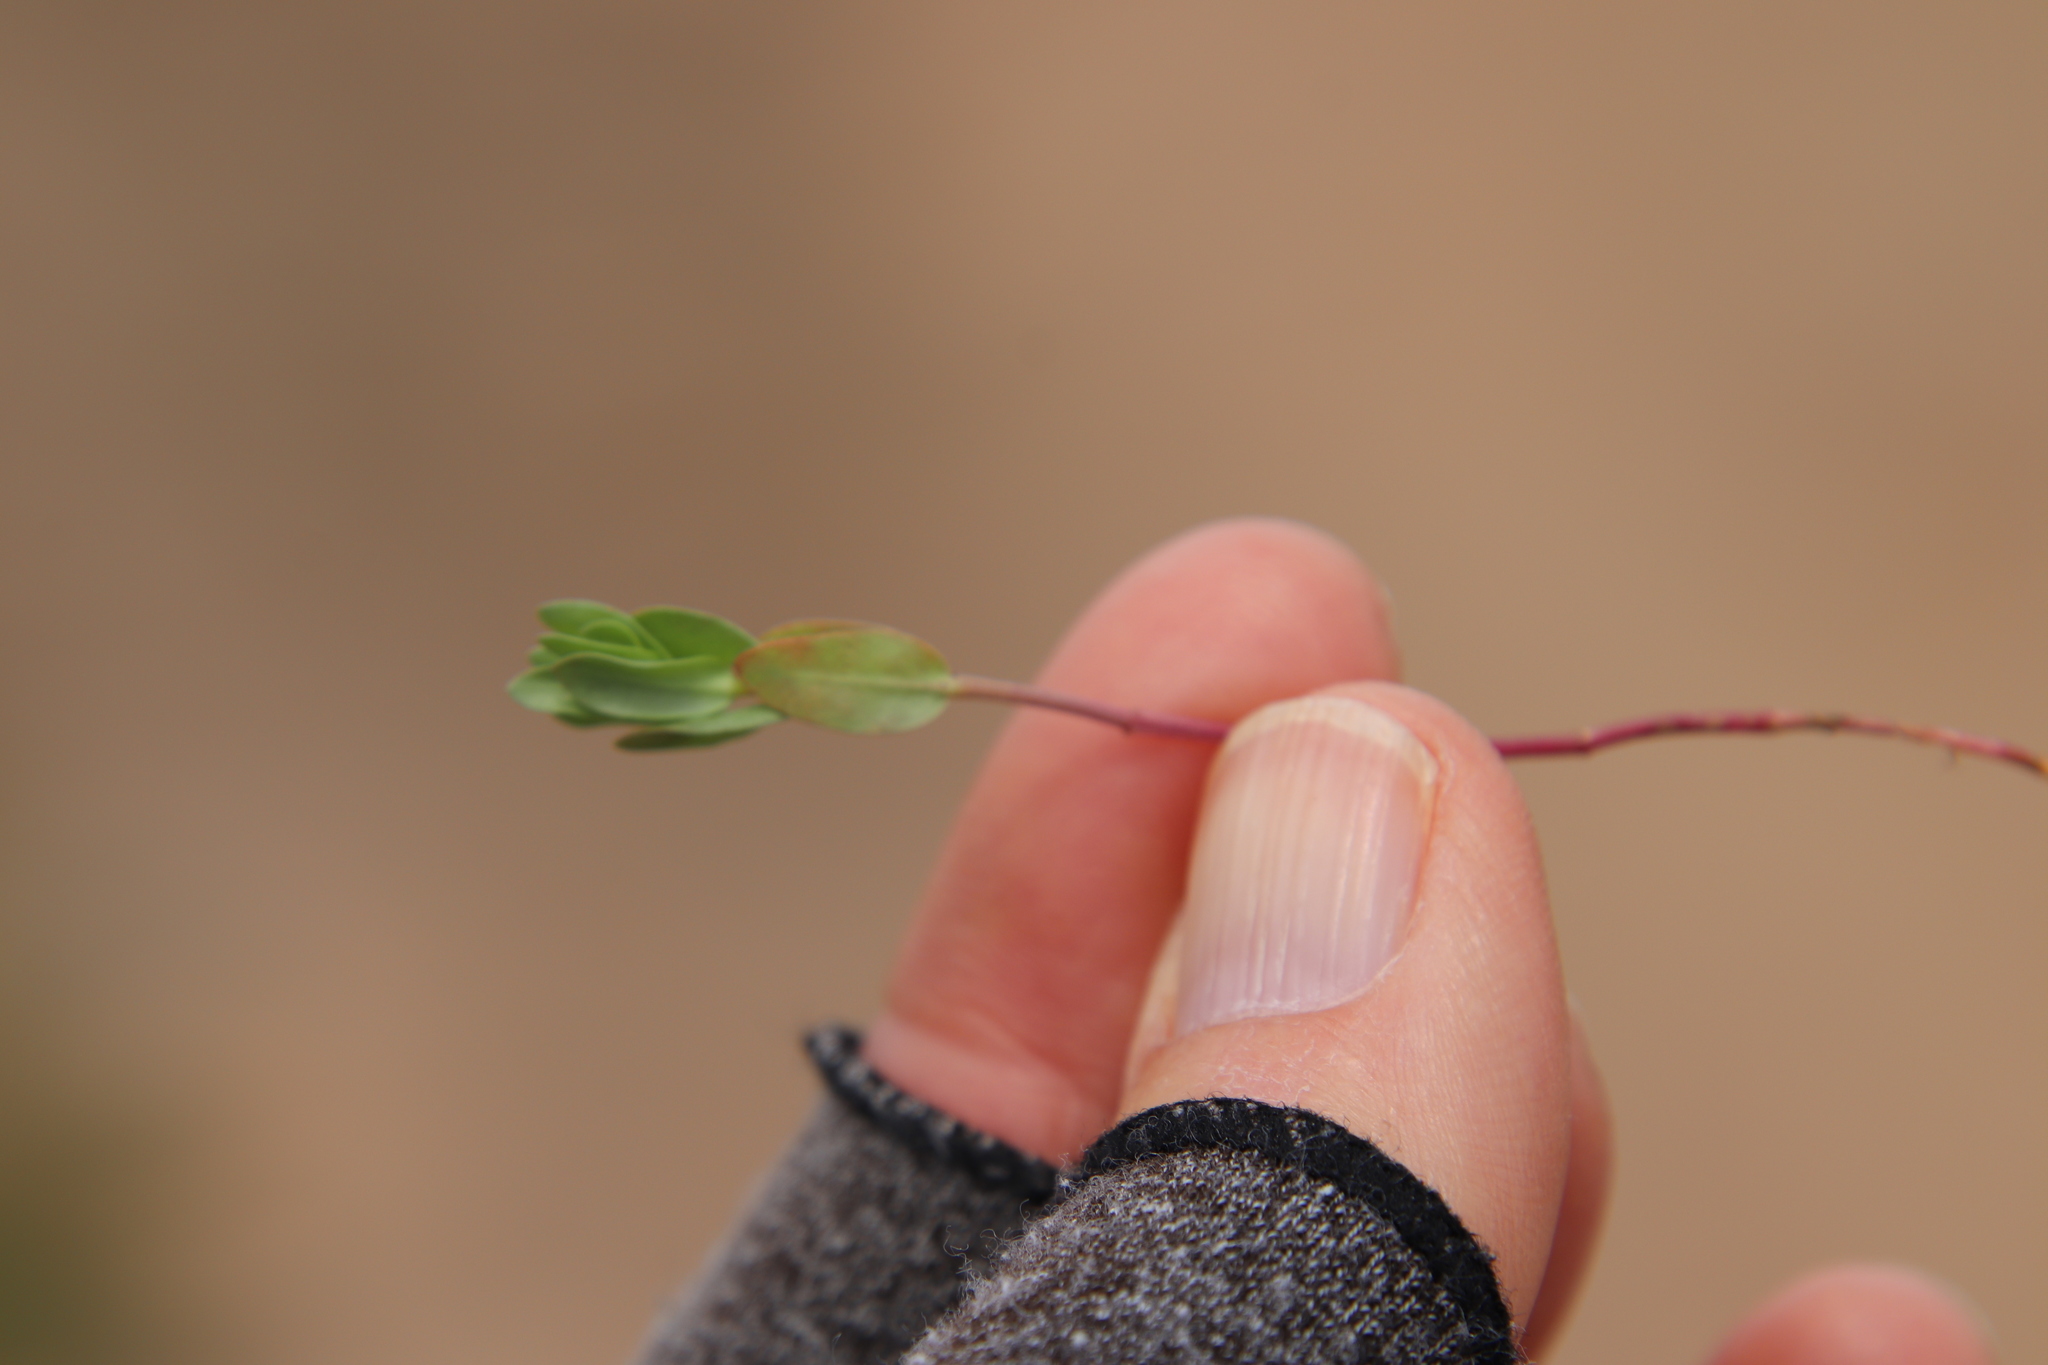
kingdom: Plantae
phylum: Tracheophyta
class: Magnoliopsida
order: Myrtales
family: Lythraceae
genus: Lythrum
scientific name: Lythrum hyssopifolia
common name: Grass-poly
